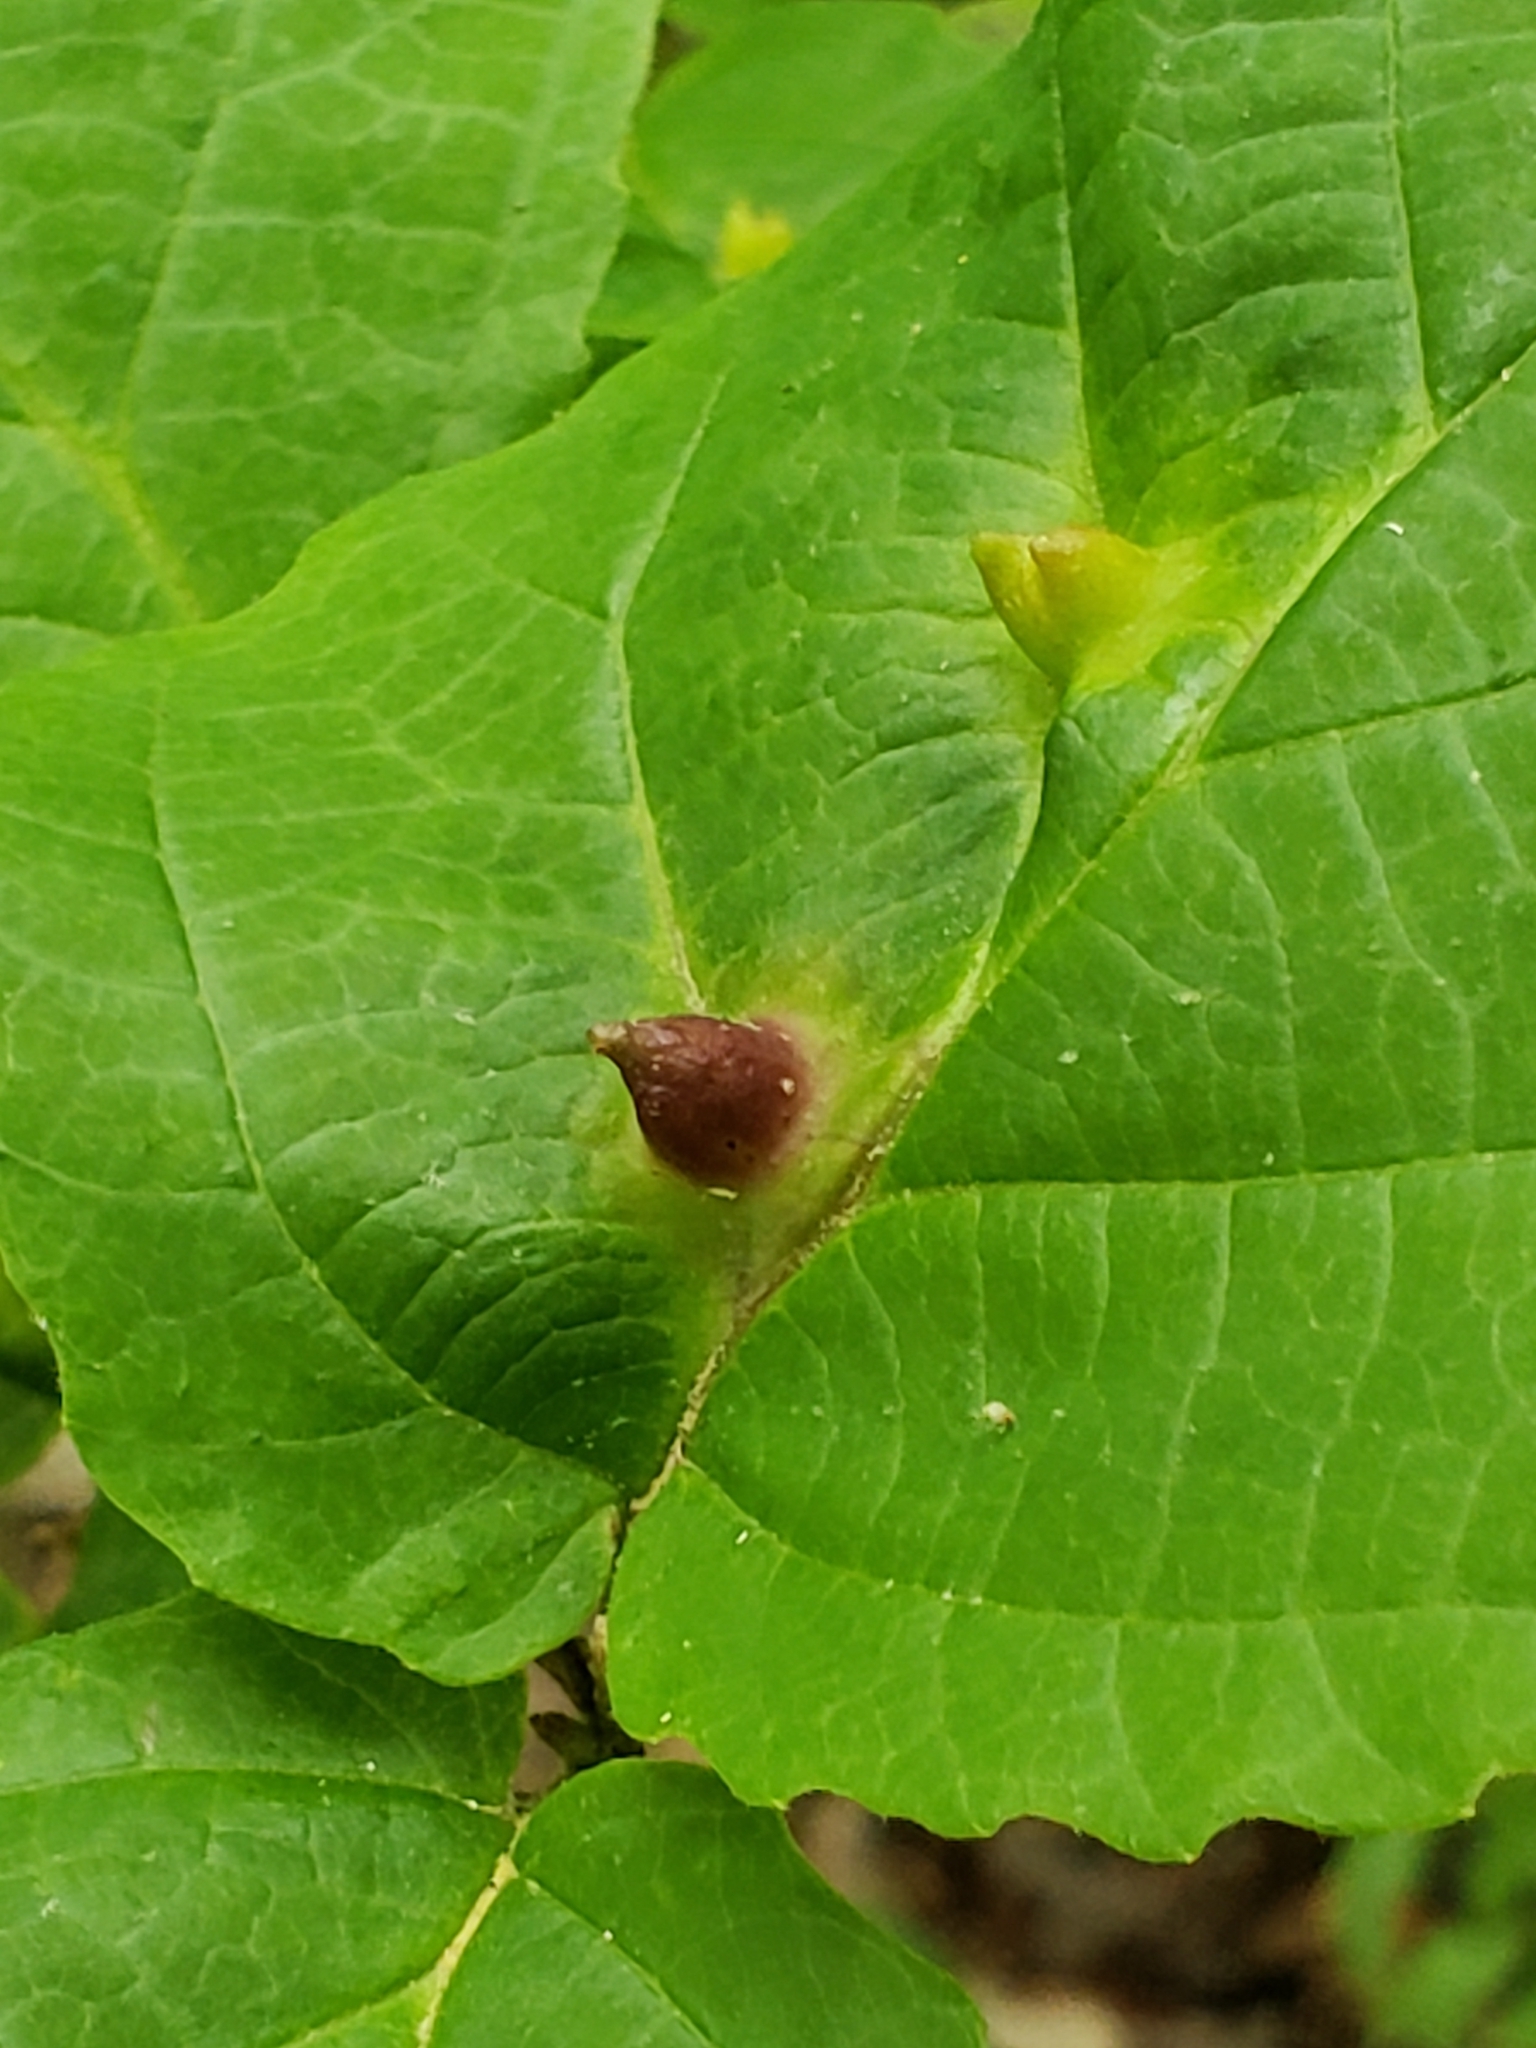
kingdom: Animalia
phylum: Arthropoda
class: Insecta
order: Hemiptera
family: Aphididae
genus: Hormaphis
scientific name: Hormaphis hamamelidis
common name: Witch-hazel cone gall aphid
